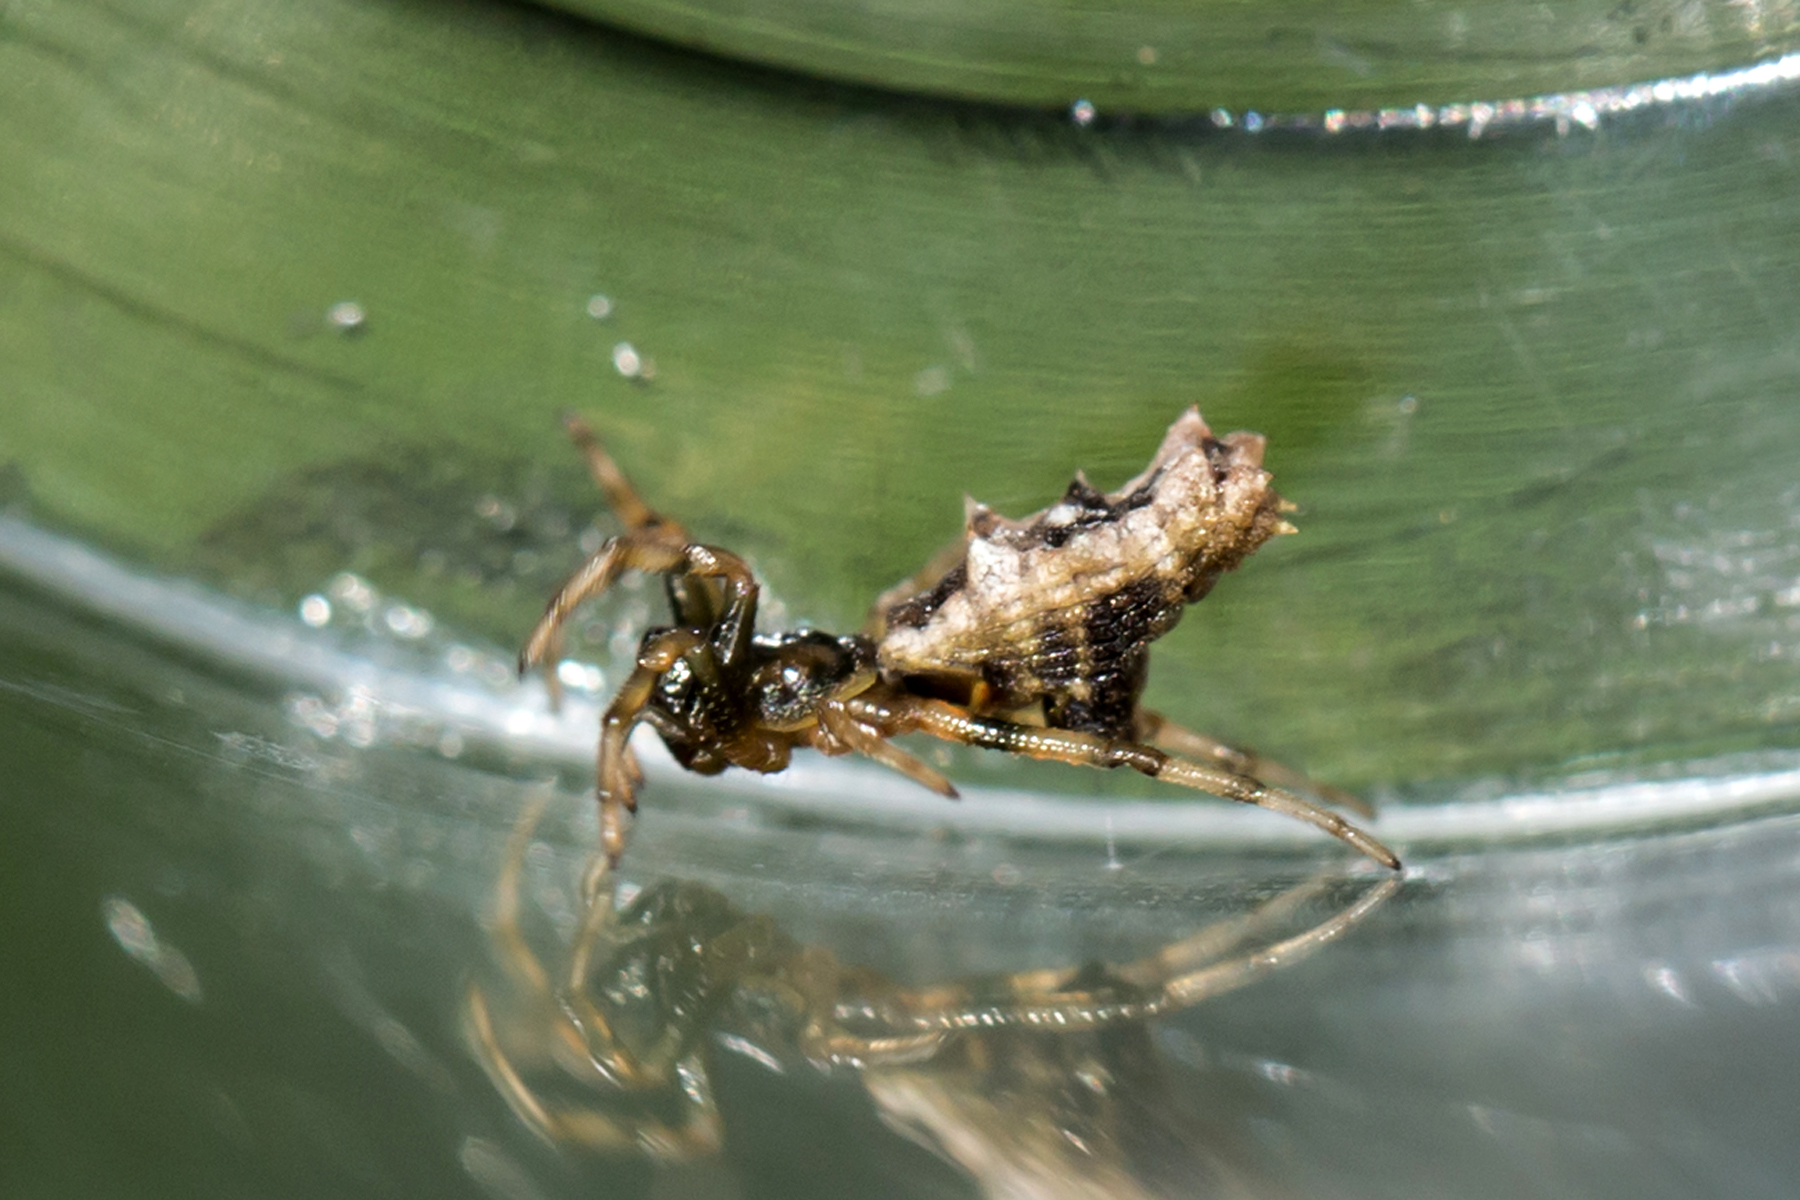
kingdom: Animalia
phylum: Arthropoda
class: Arachnida
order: Araneae
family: Araneidae
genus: Micrathena
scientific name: Micrathena gracilis
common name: Orb weavers
